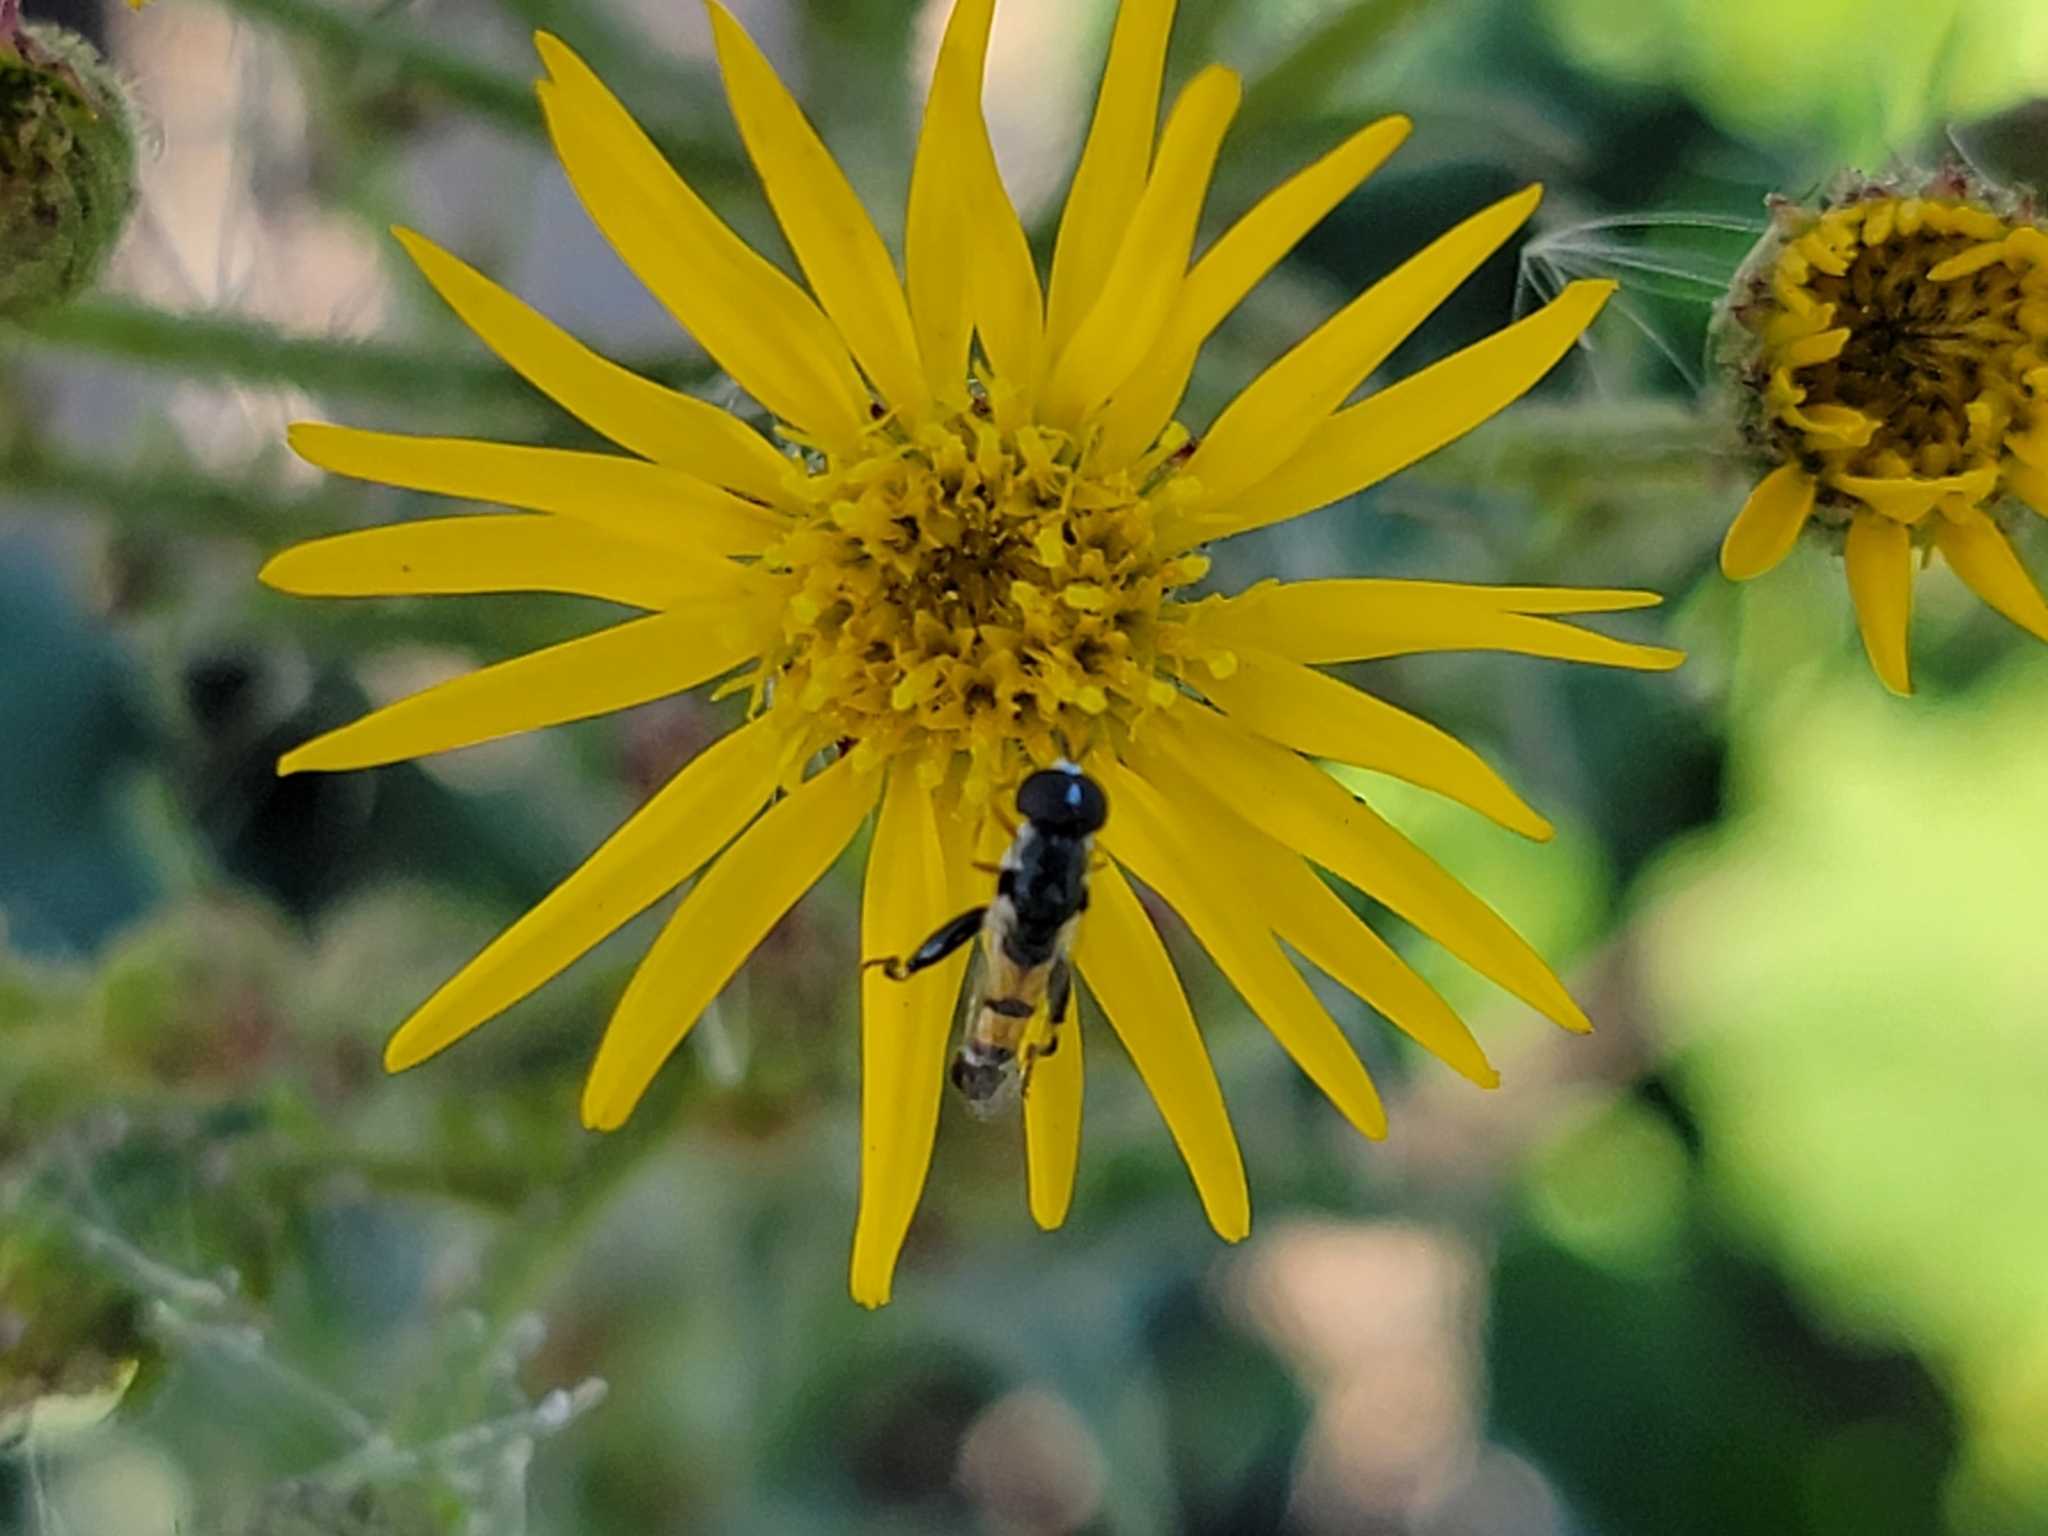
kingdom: Animalia
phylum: Arthropoda
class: Insecta
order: Diptera
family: Syrphidae
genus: Syritta
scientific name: Syritta flaviventris
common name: Syrphid fly
